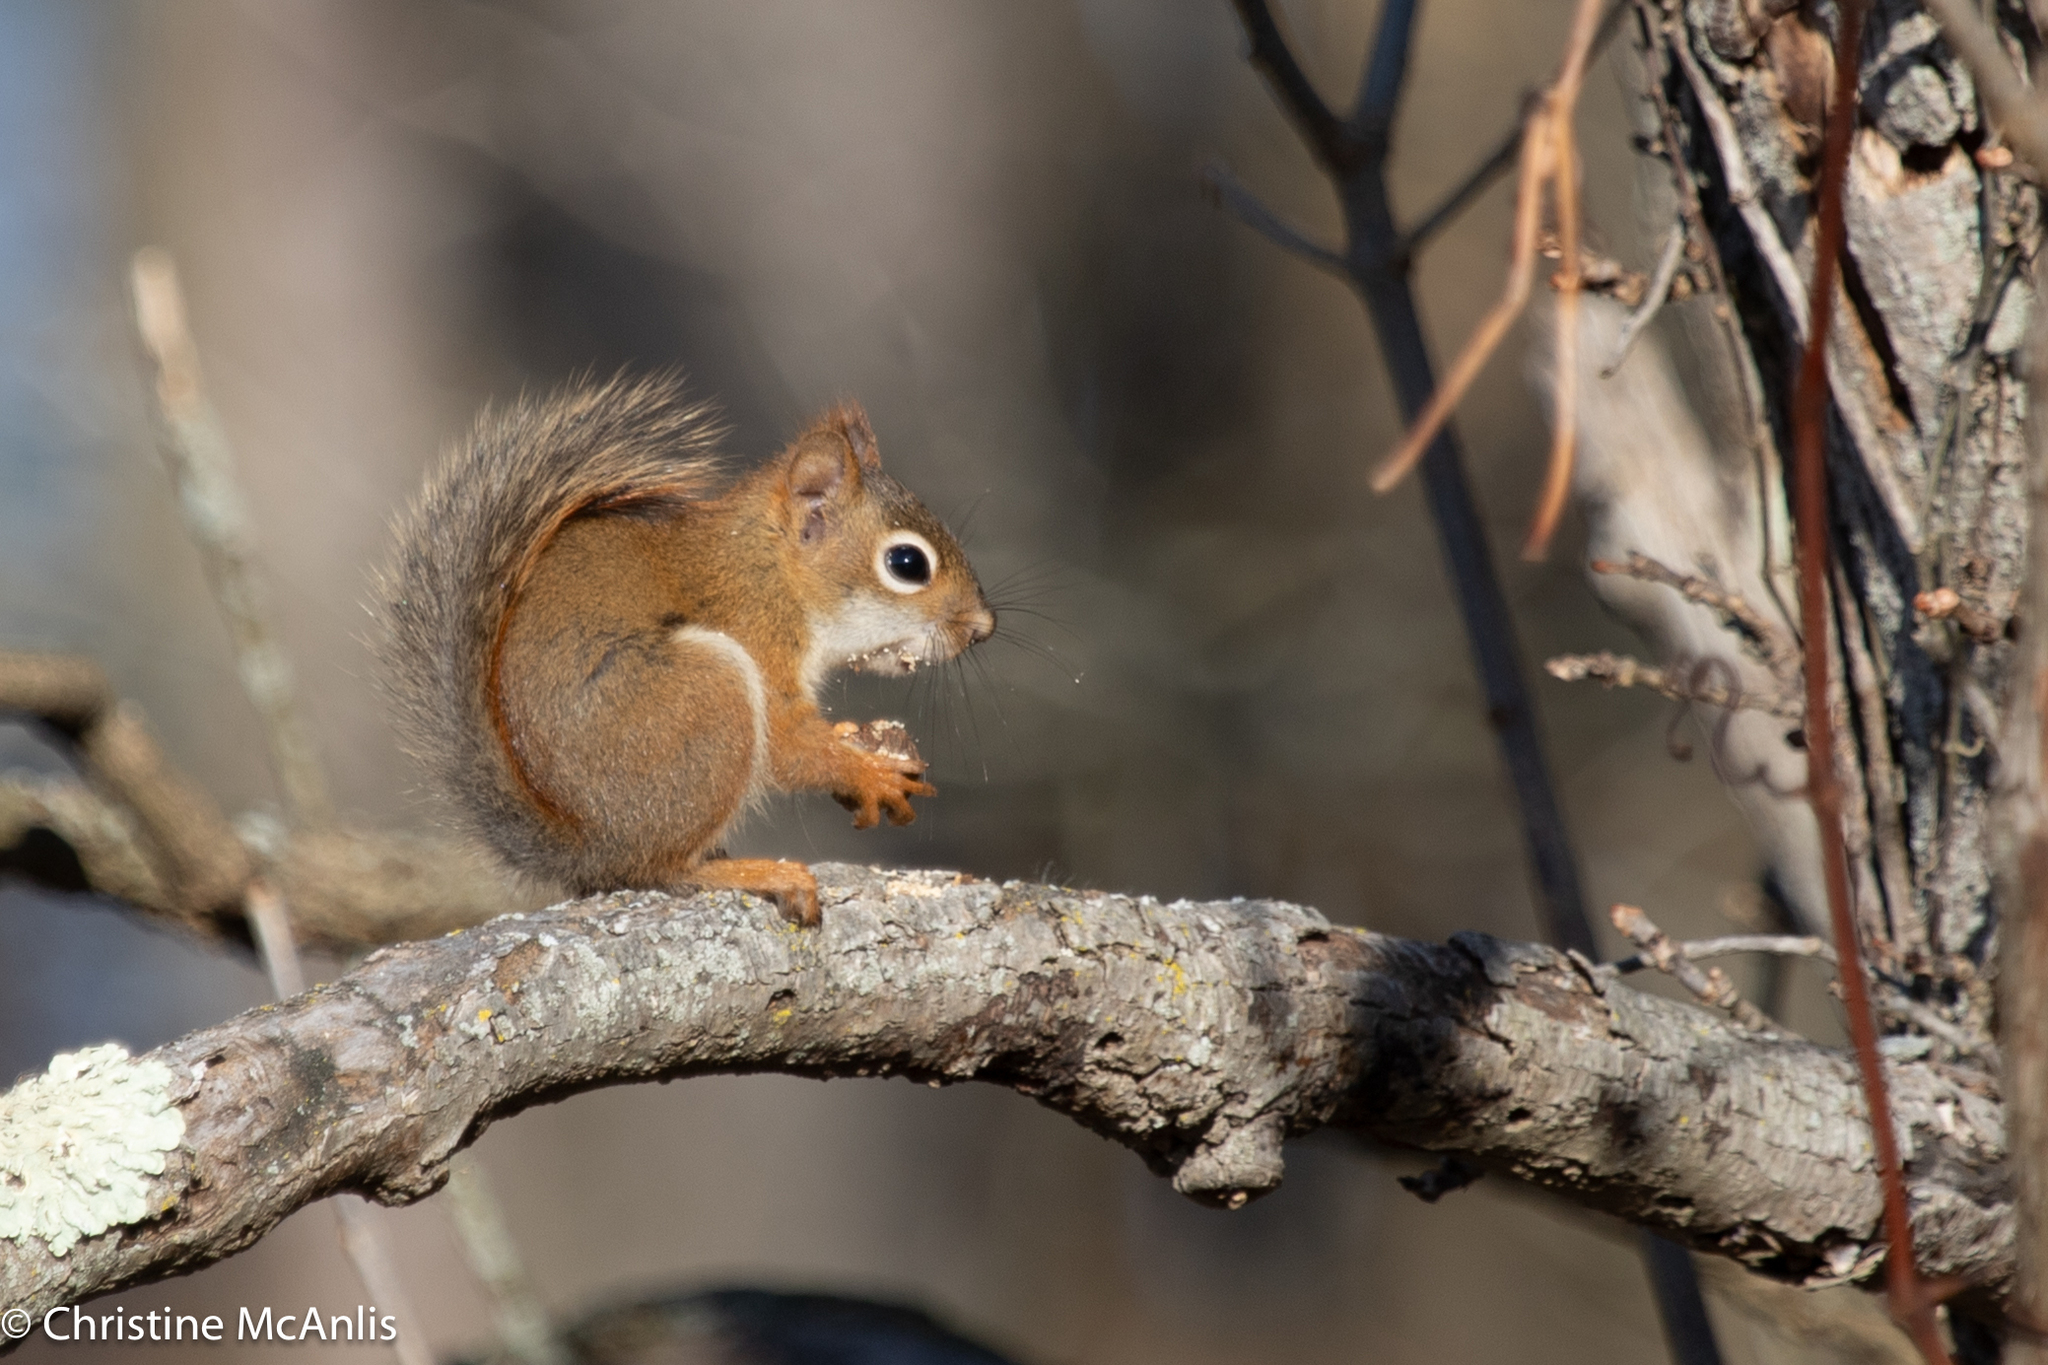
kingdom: Animalia
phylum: Chordata
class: Mammalia
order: Rodentia
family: Sciuridae
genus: Tamiasciurus
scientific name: Tamiasciurus hudsonicus
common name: Red squirrel
